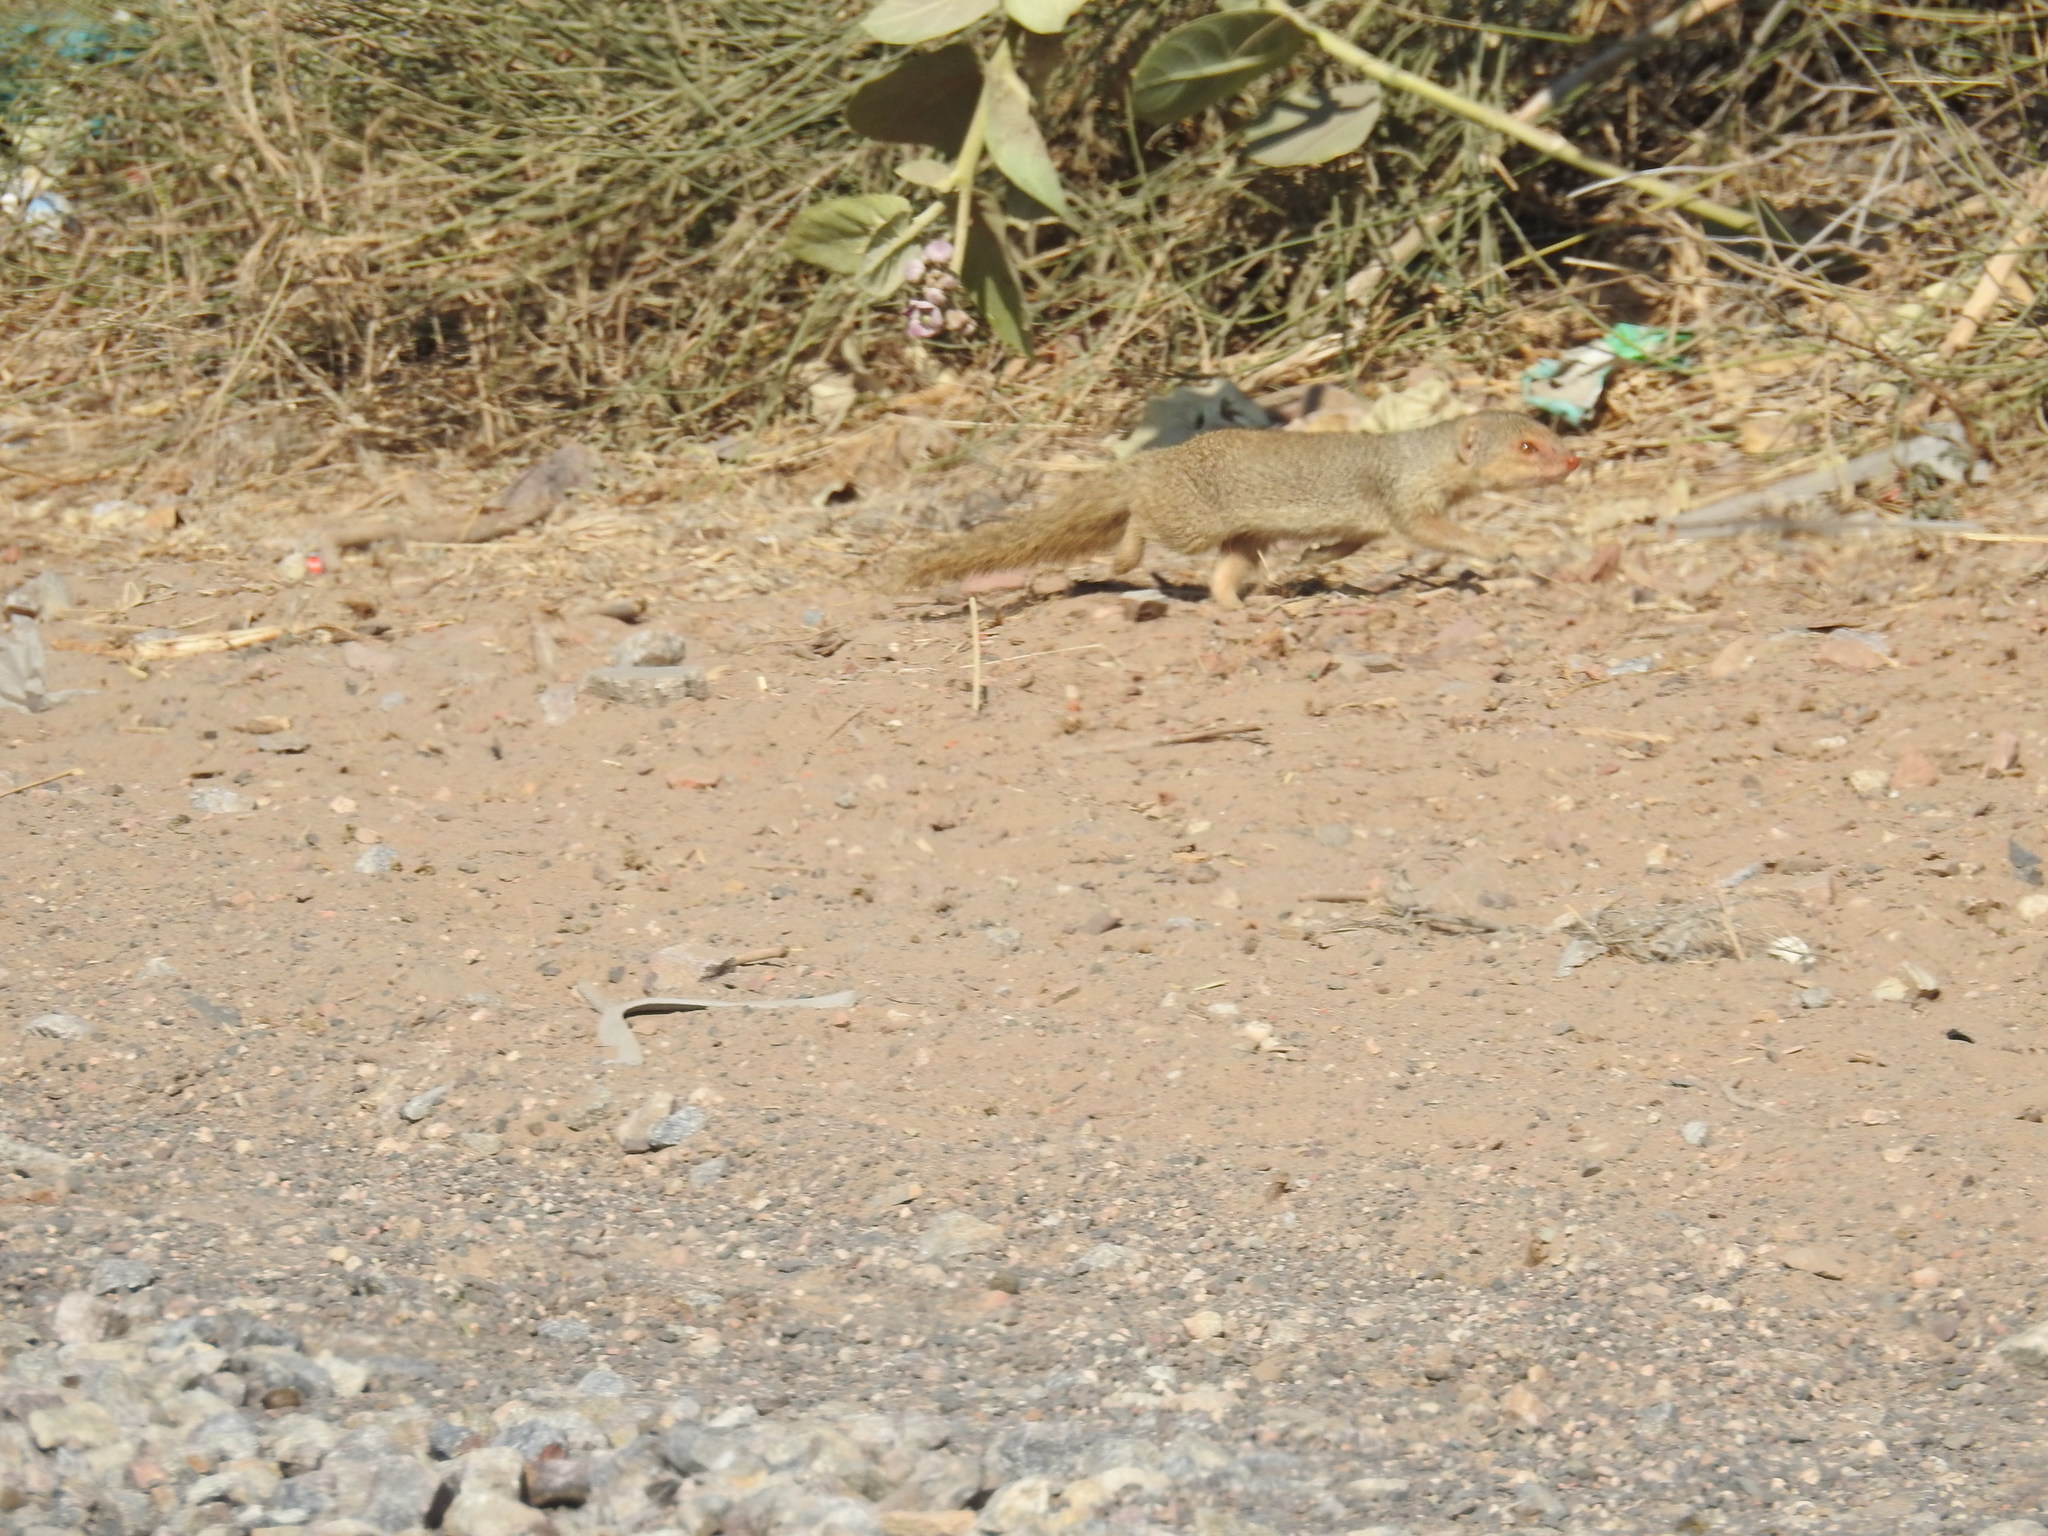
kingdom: Animalia
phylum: Chordata
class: Mammalia
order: Carnivora
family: Herpestidae
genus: Herpestes
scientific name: Herpestes javanicus
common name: Small asian mongoose
